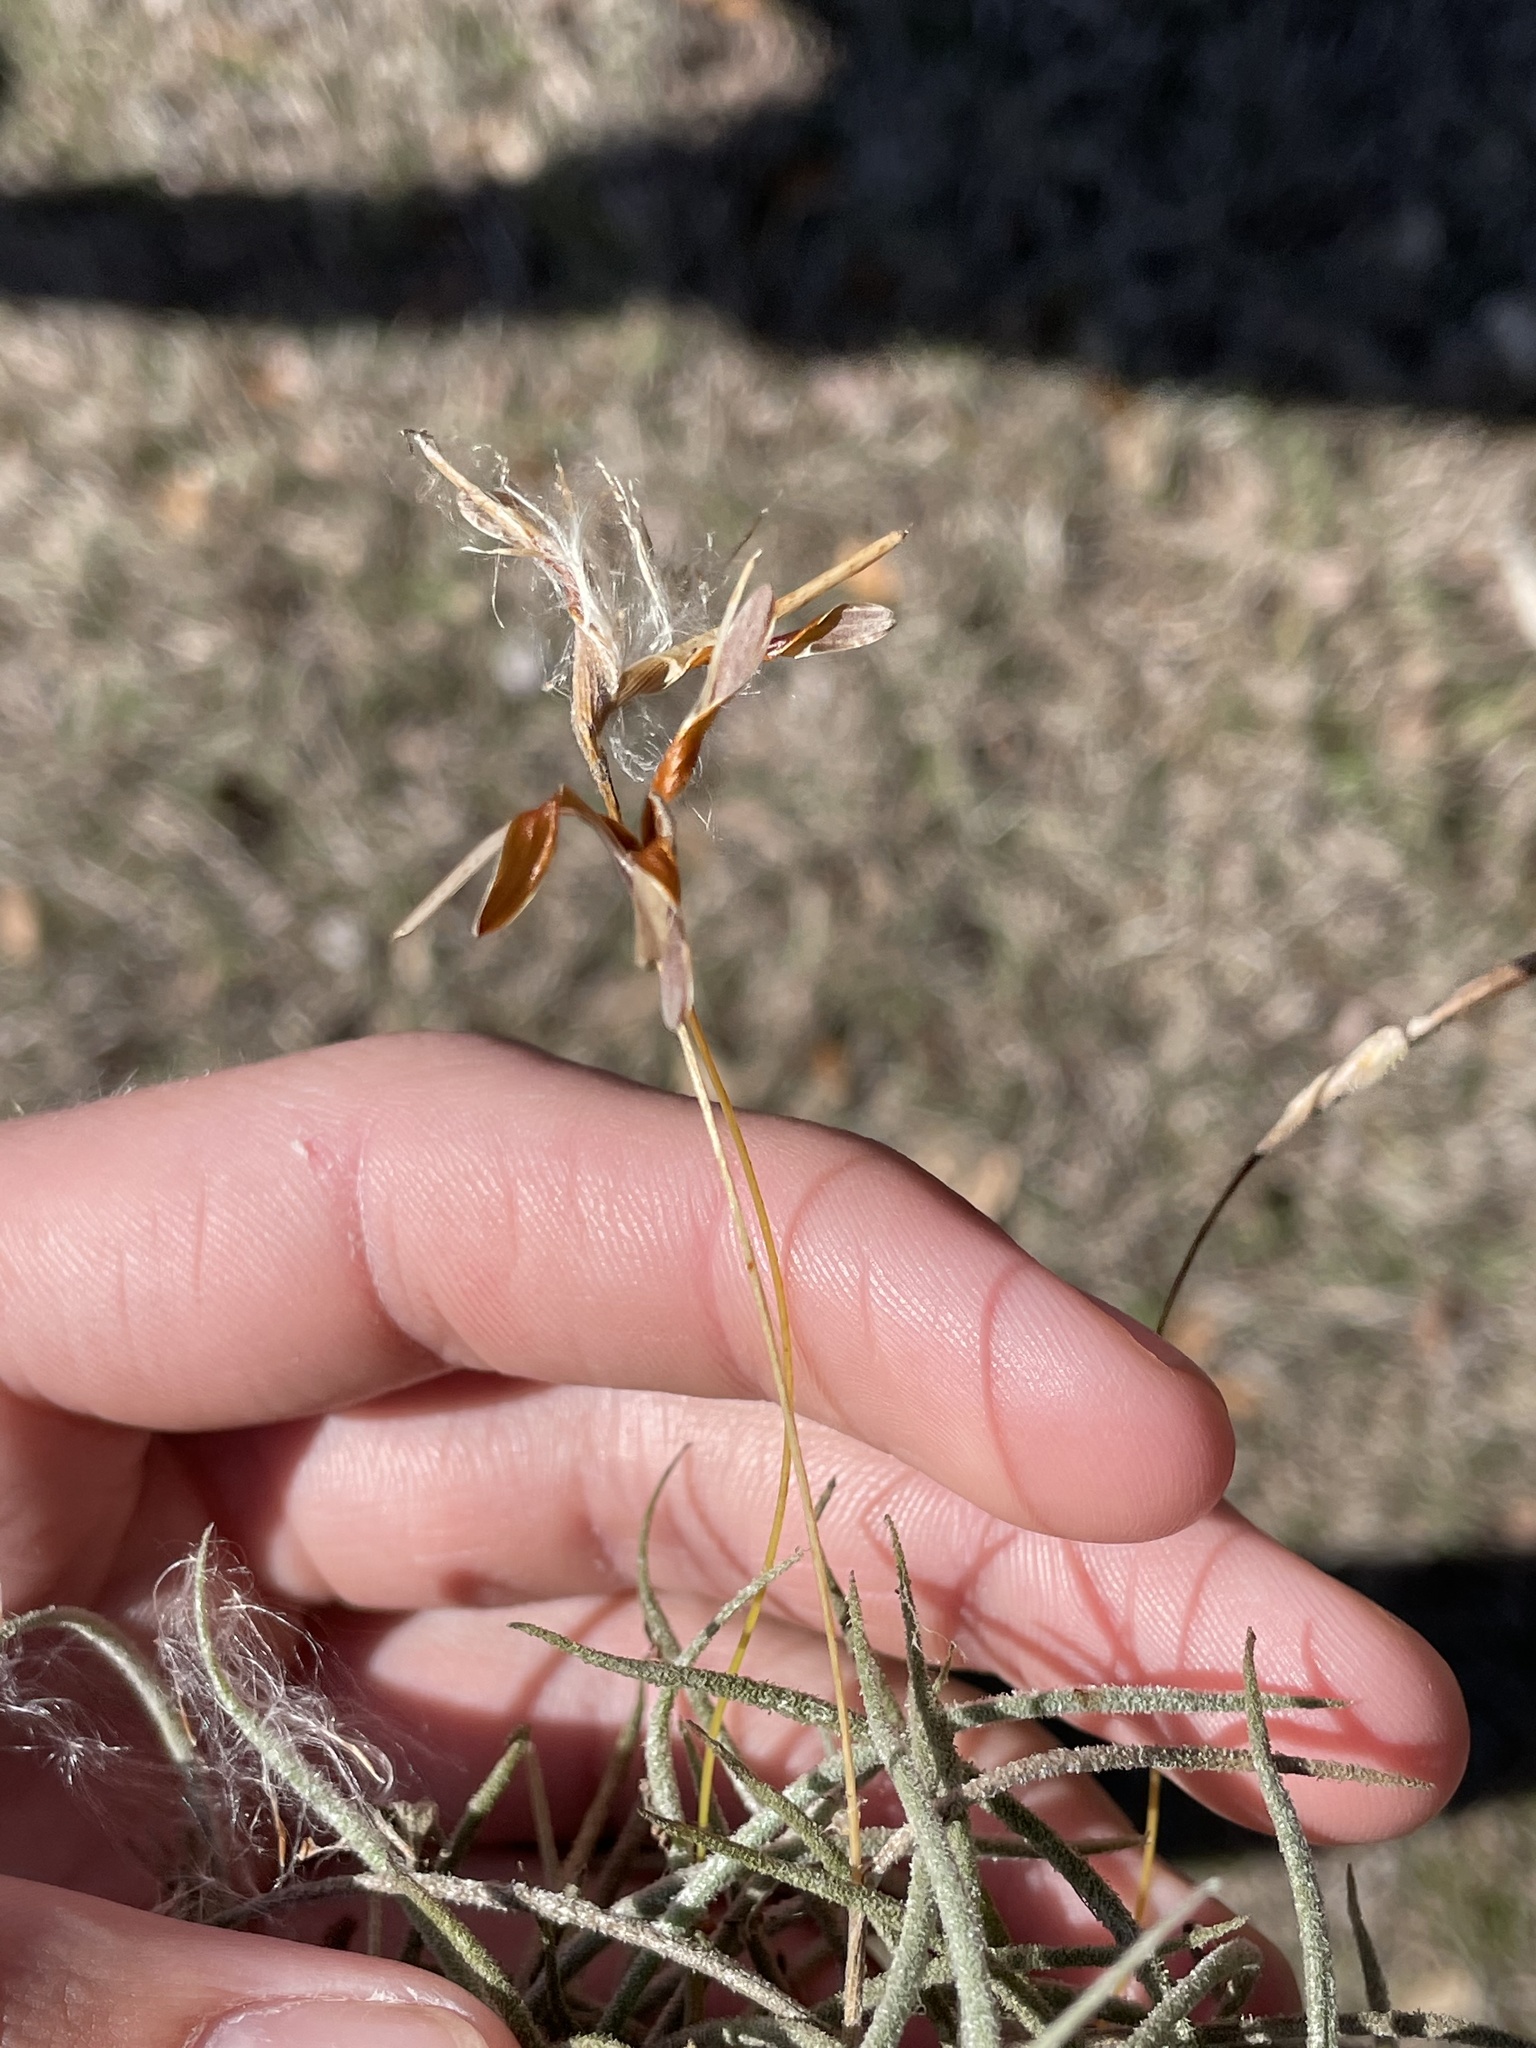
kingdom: Plantae
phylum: Tracheophyta
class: Liliopsida
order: Poales
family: Bromeliaceae
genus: Tillandsia
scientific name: Tillandsia recurvata
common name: Small ballmoss
